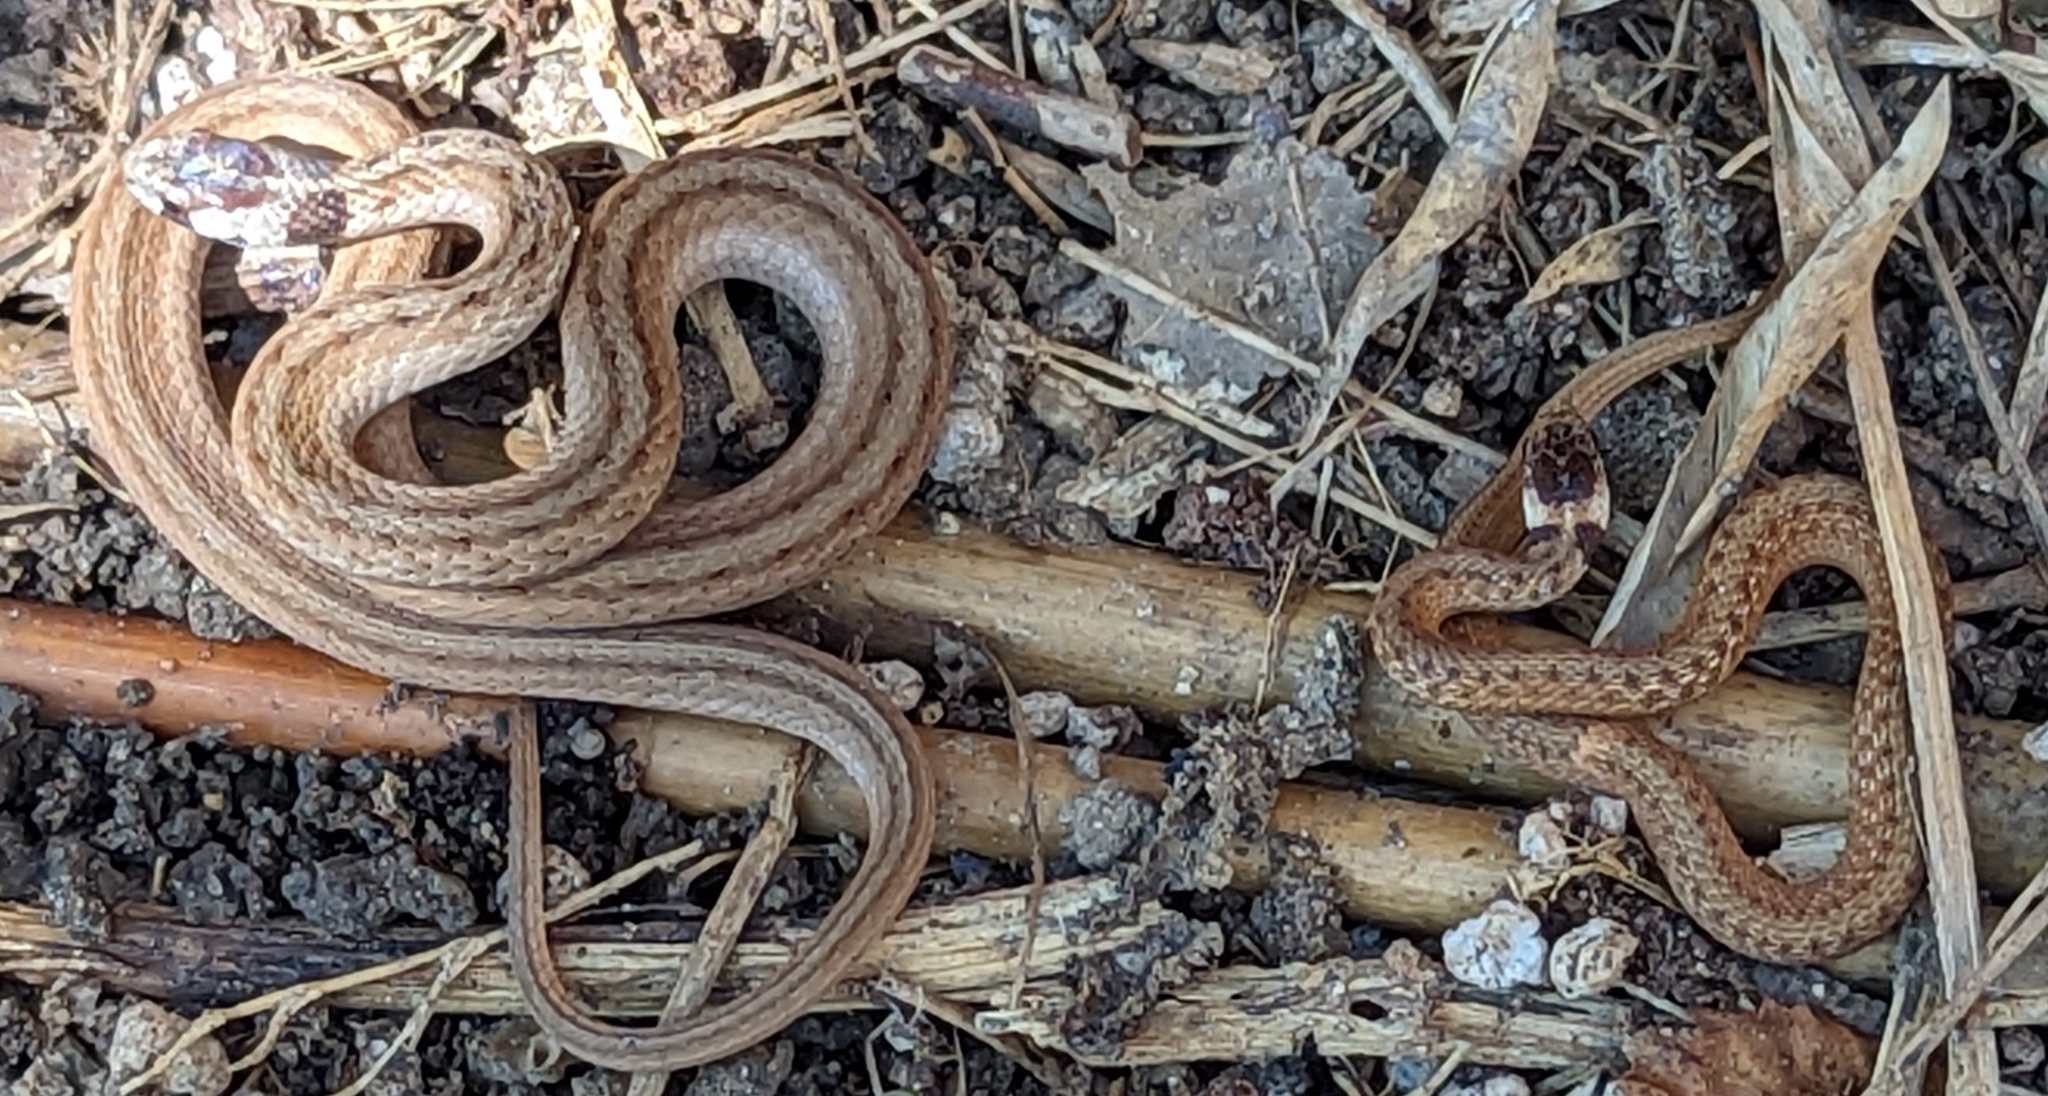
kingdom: Animalia
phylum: Chordata
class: Squamata
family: Colubridae
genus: Storeria
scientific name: Storeria dekayi
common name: (dekay’s) brown snake
